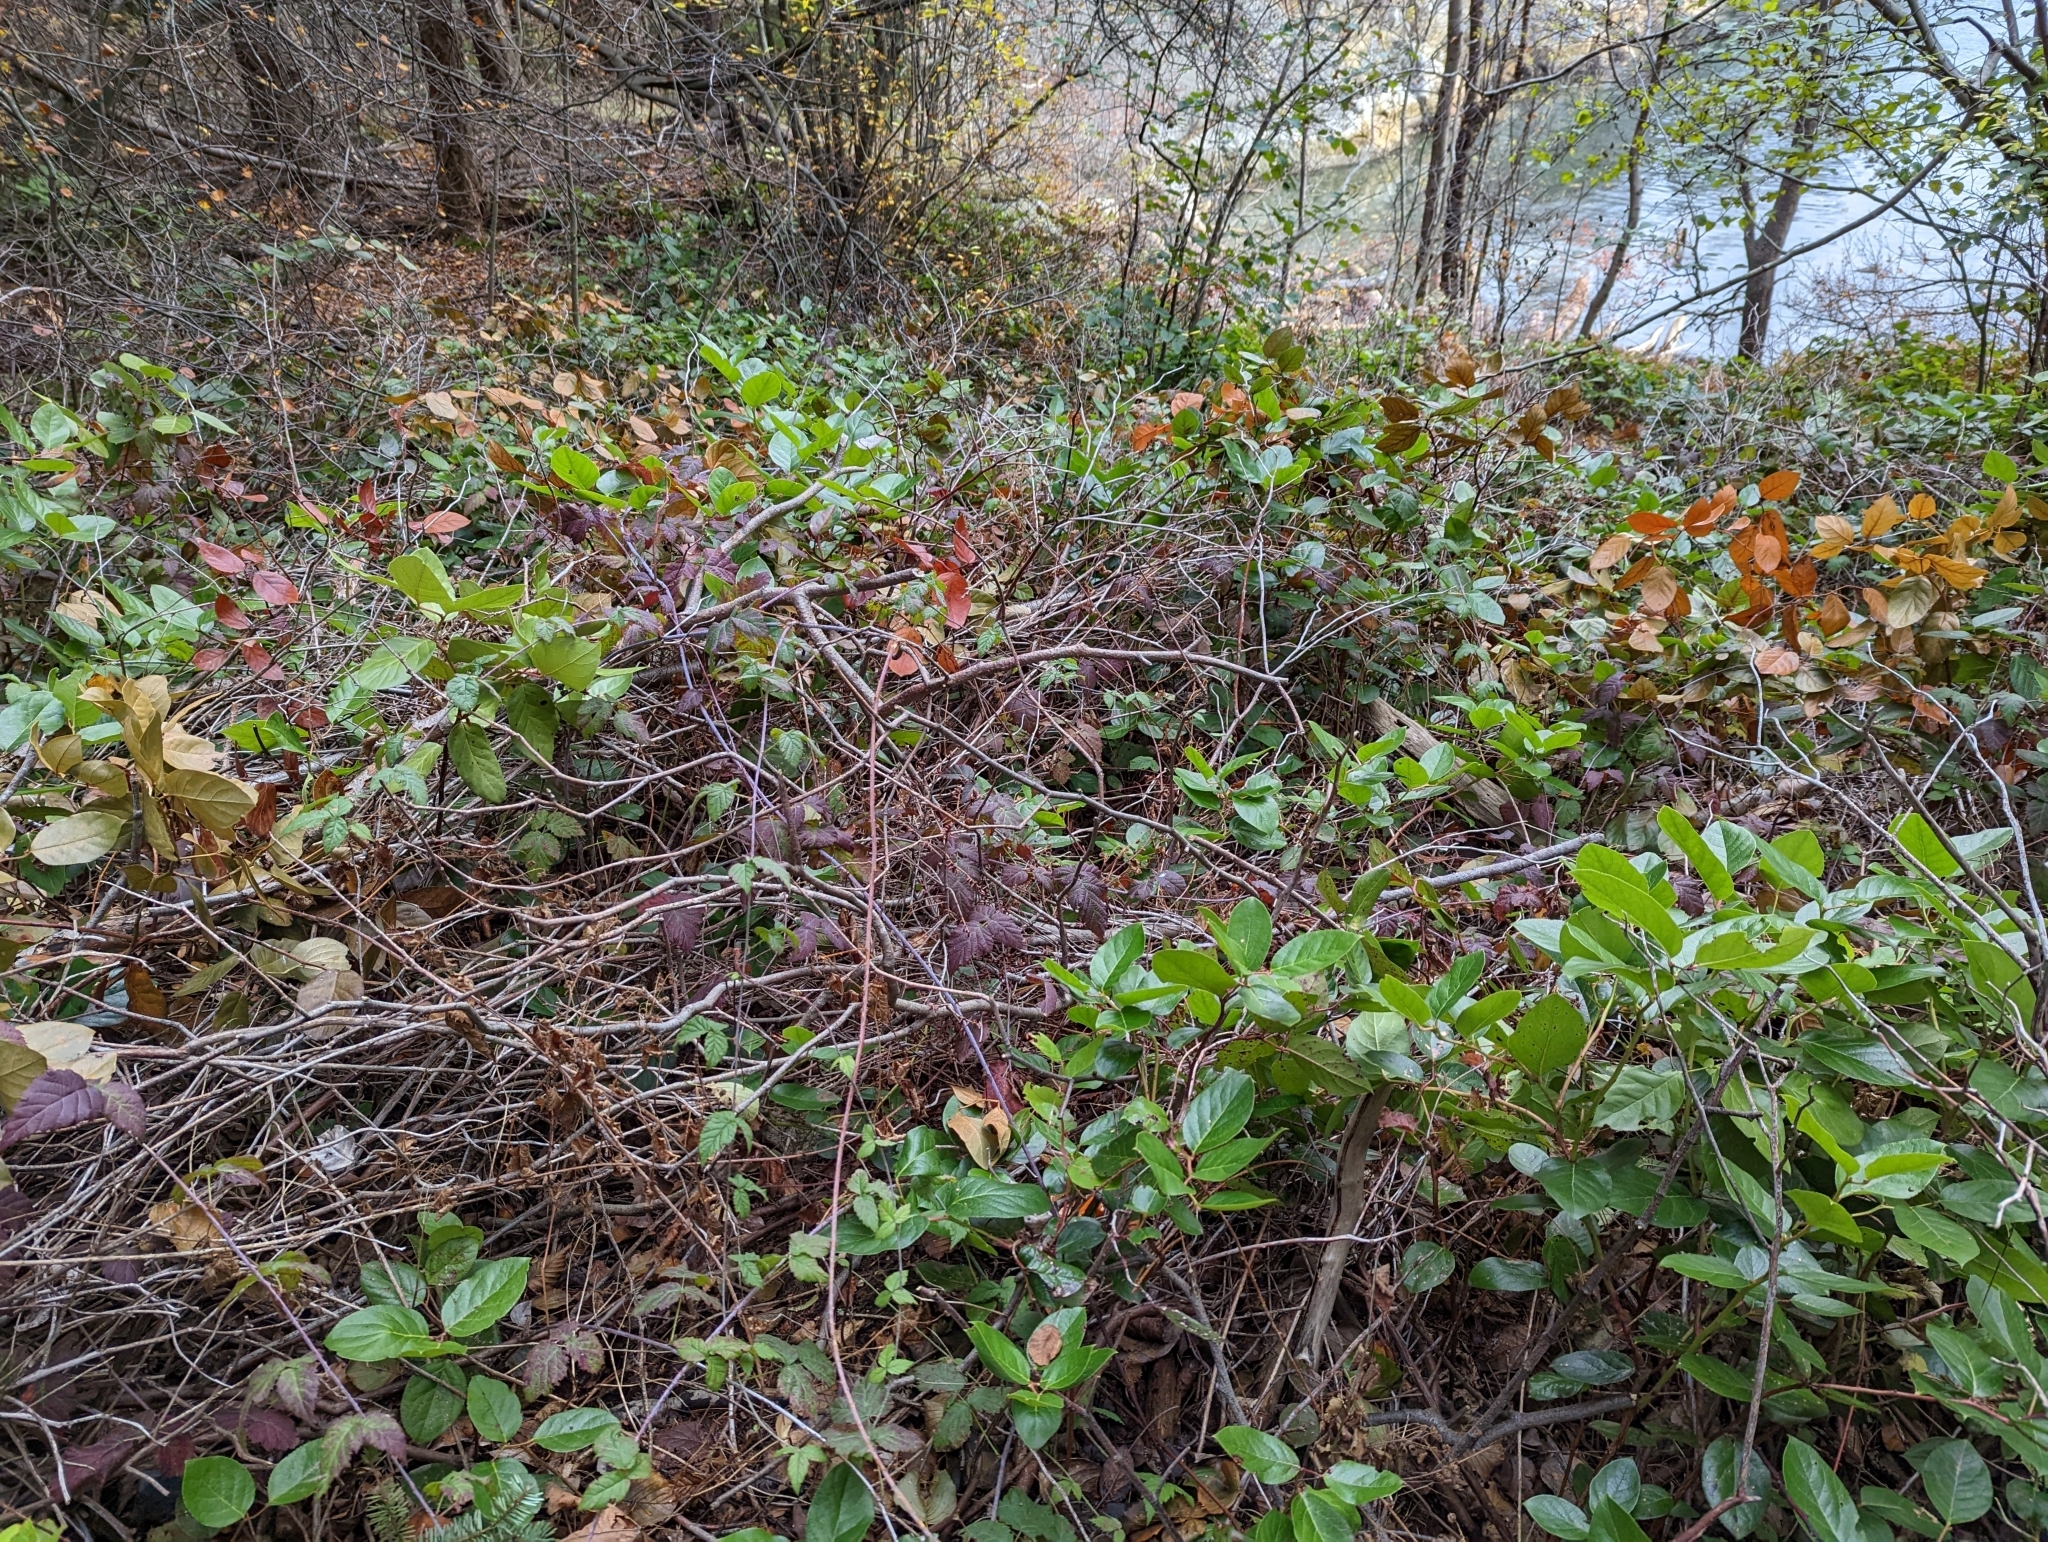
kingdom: Plantae
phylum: Tracheophyta
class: Magnoliopsida
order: Ericales
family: Ericaceae
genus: Gaultheria
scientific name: Gaultheria shallon
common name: Shallon
